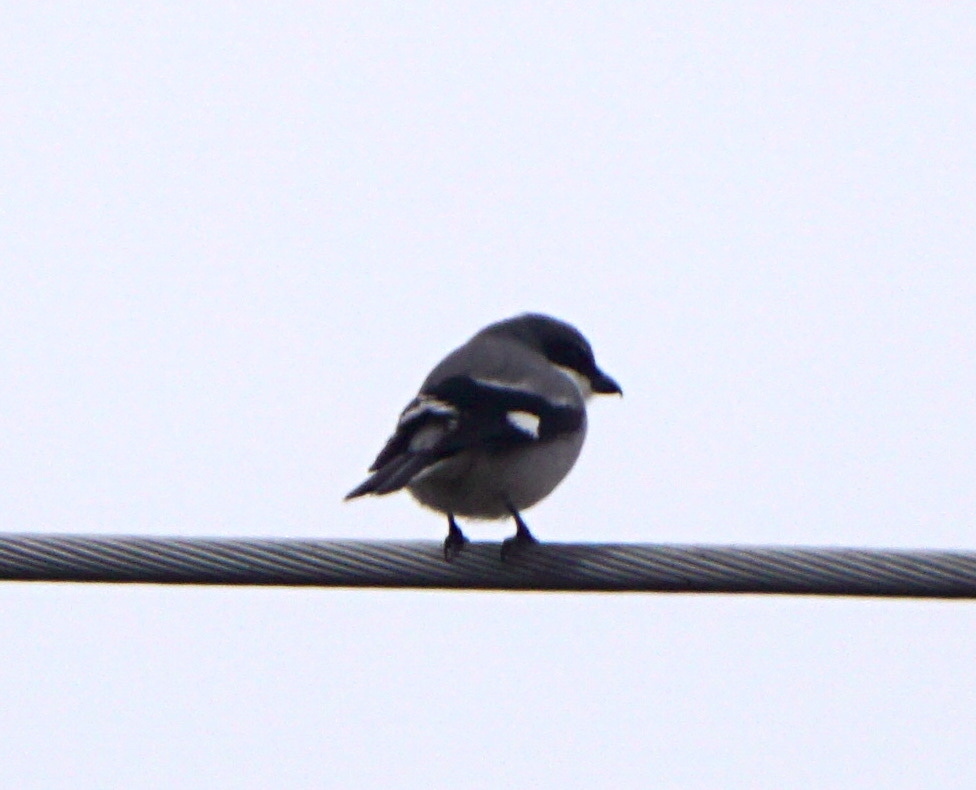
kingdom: Animalia
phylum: Chordata
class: Aves
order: Passeriformes
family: Laniidae
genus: Lanius
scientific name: Lanius ludovicianus
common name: Loggerhead shrike
